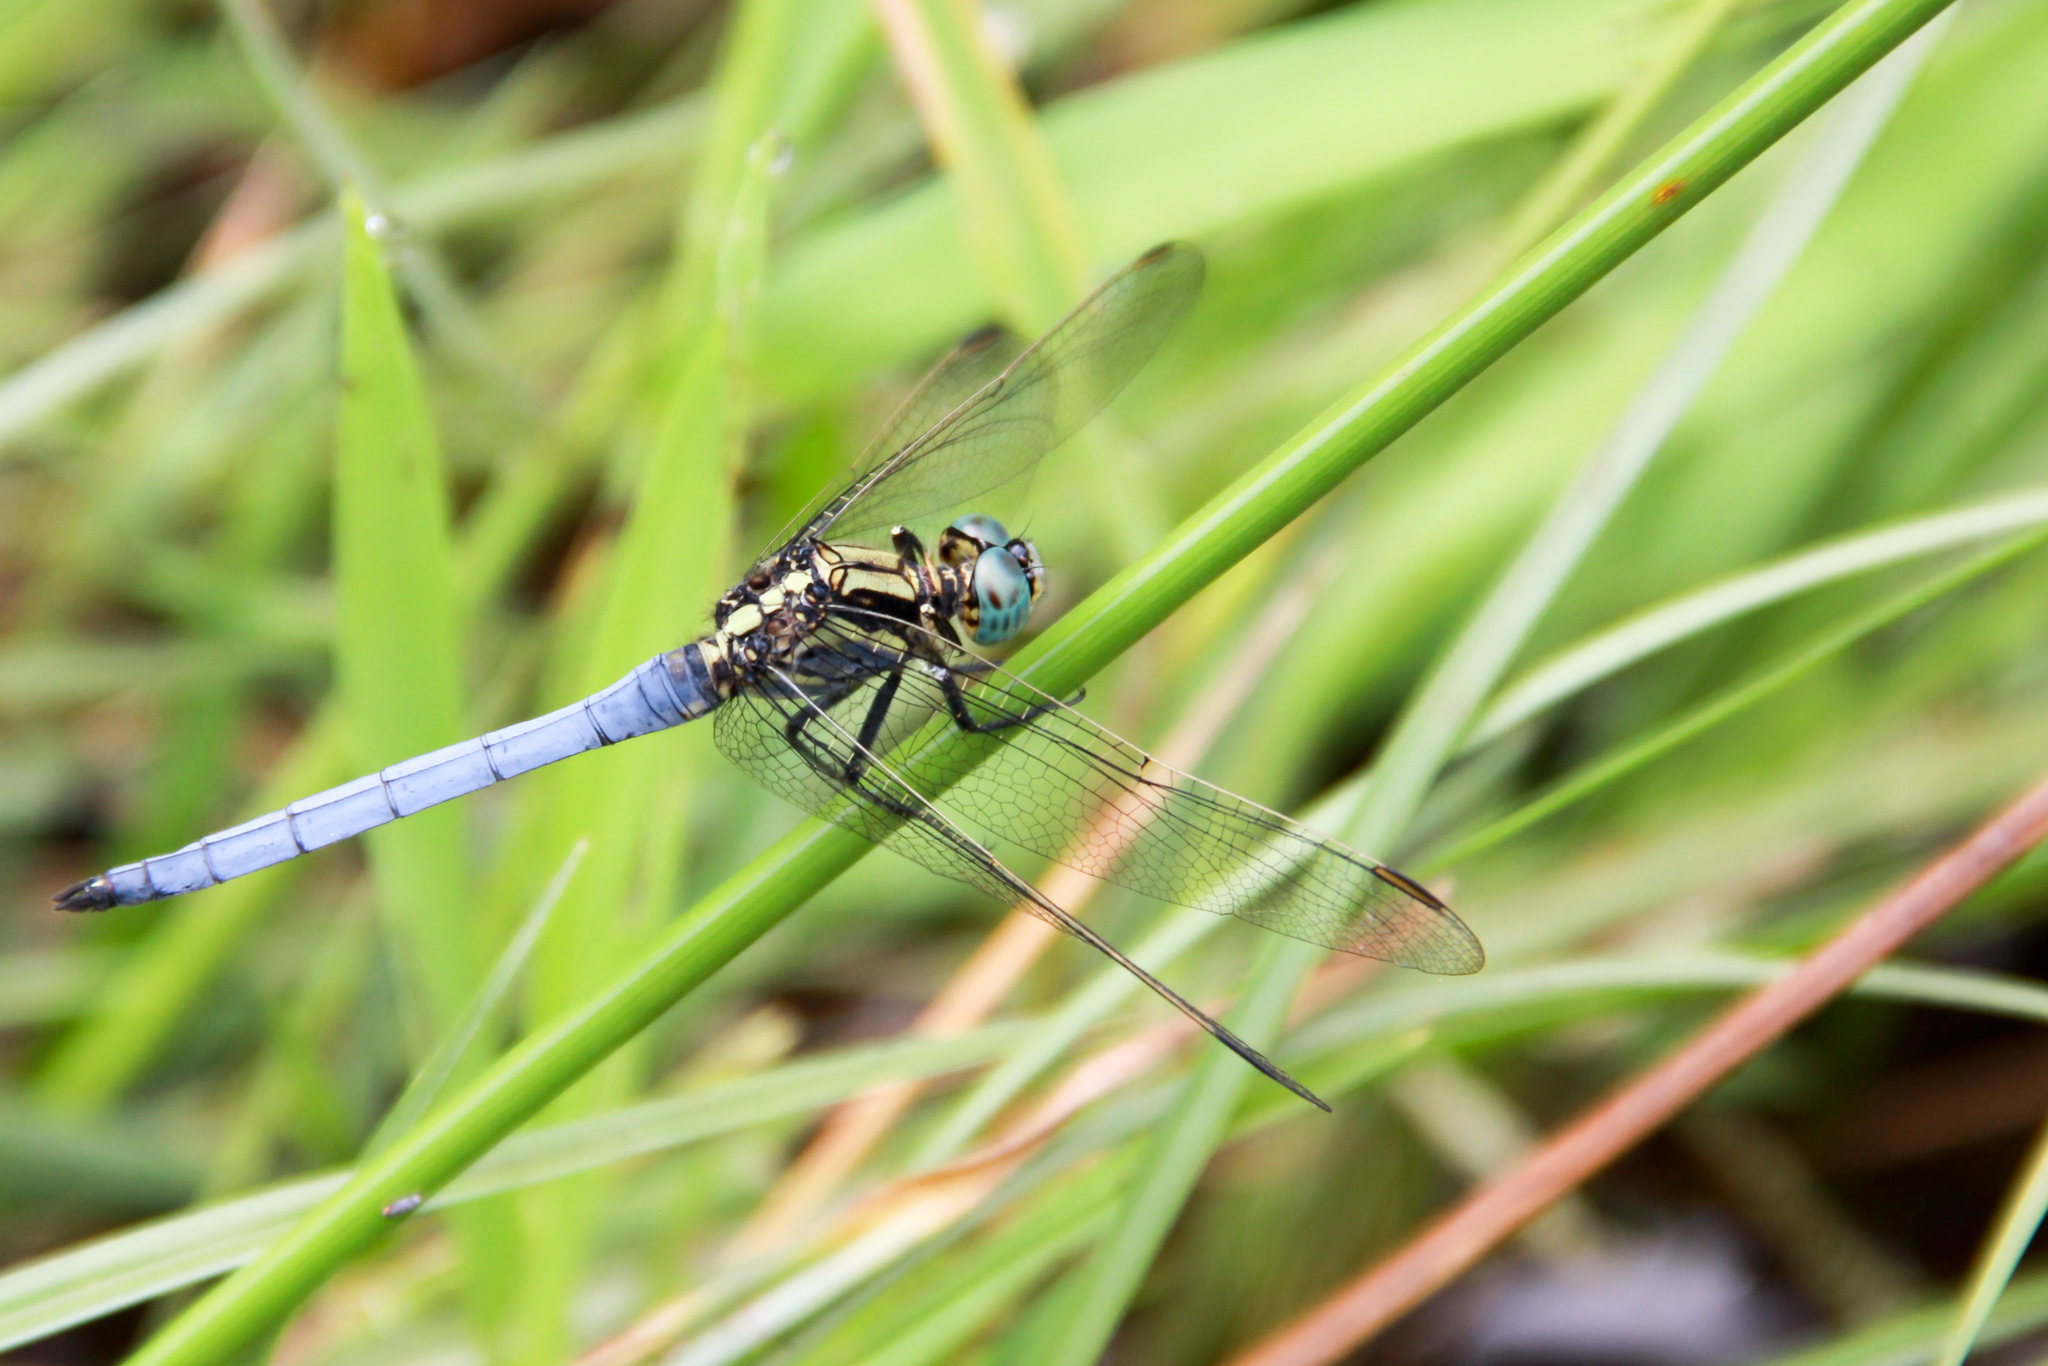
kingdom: Animalia
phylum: Arthropoda
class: Insecta
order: Odonata
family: Libellulidae
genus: Orthetrum
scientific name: Orthetrum luzonicum
